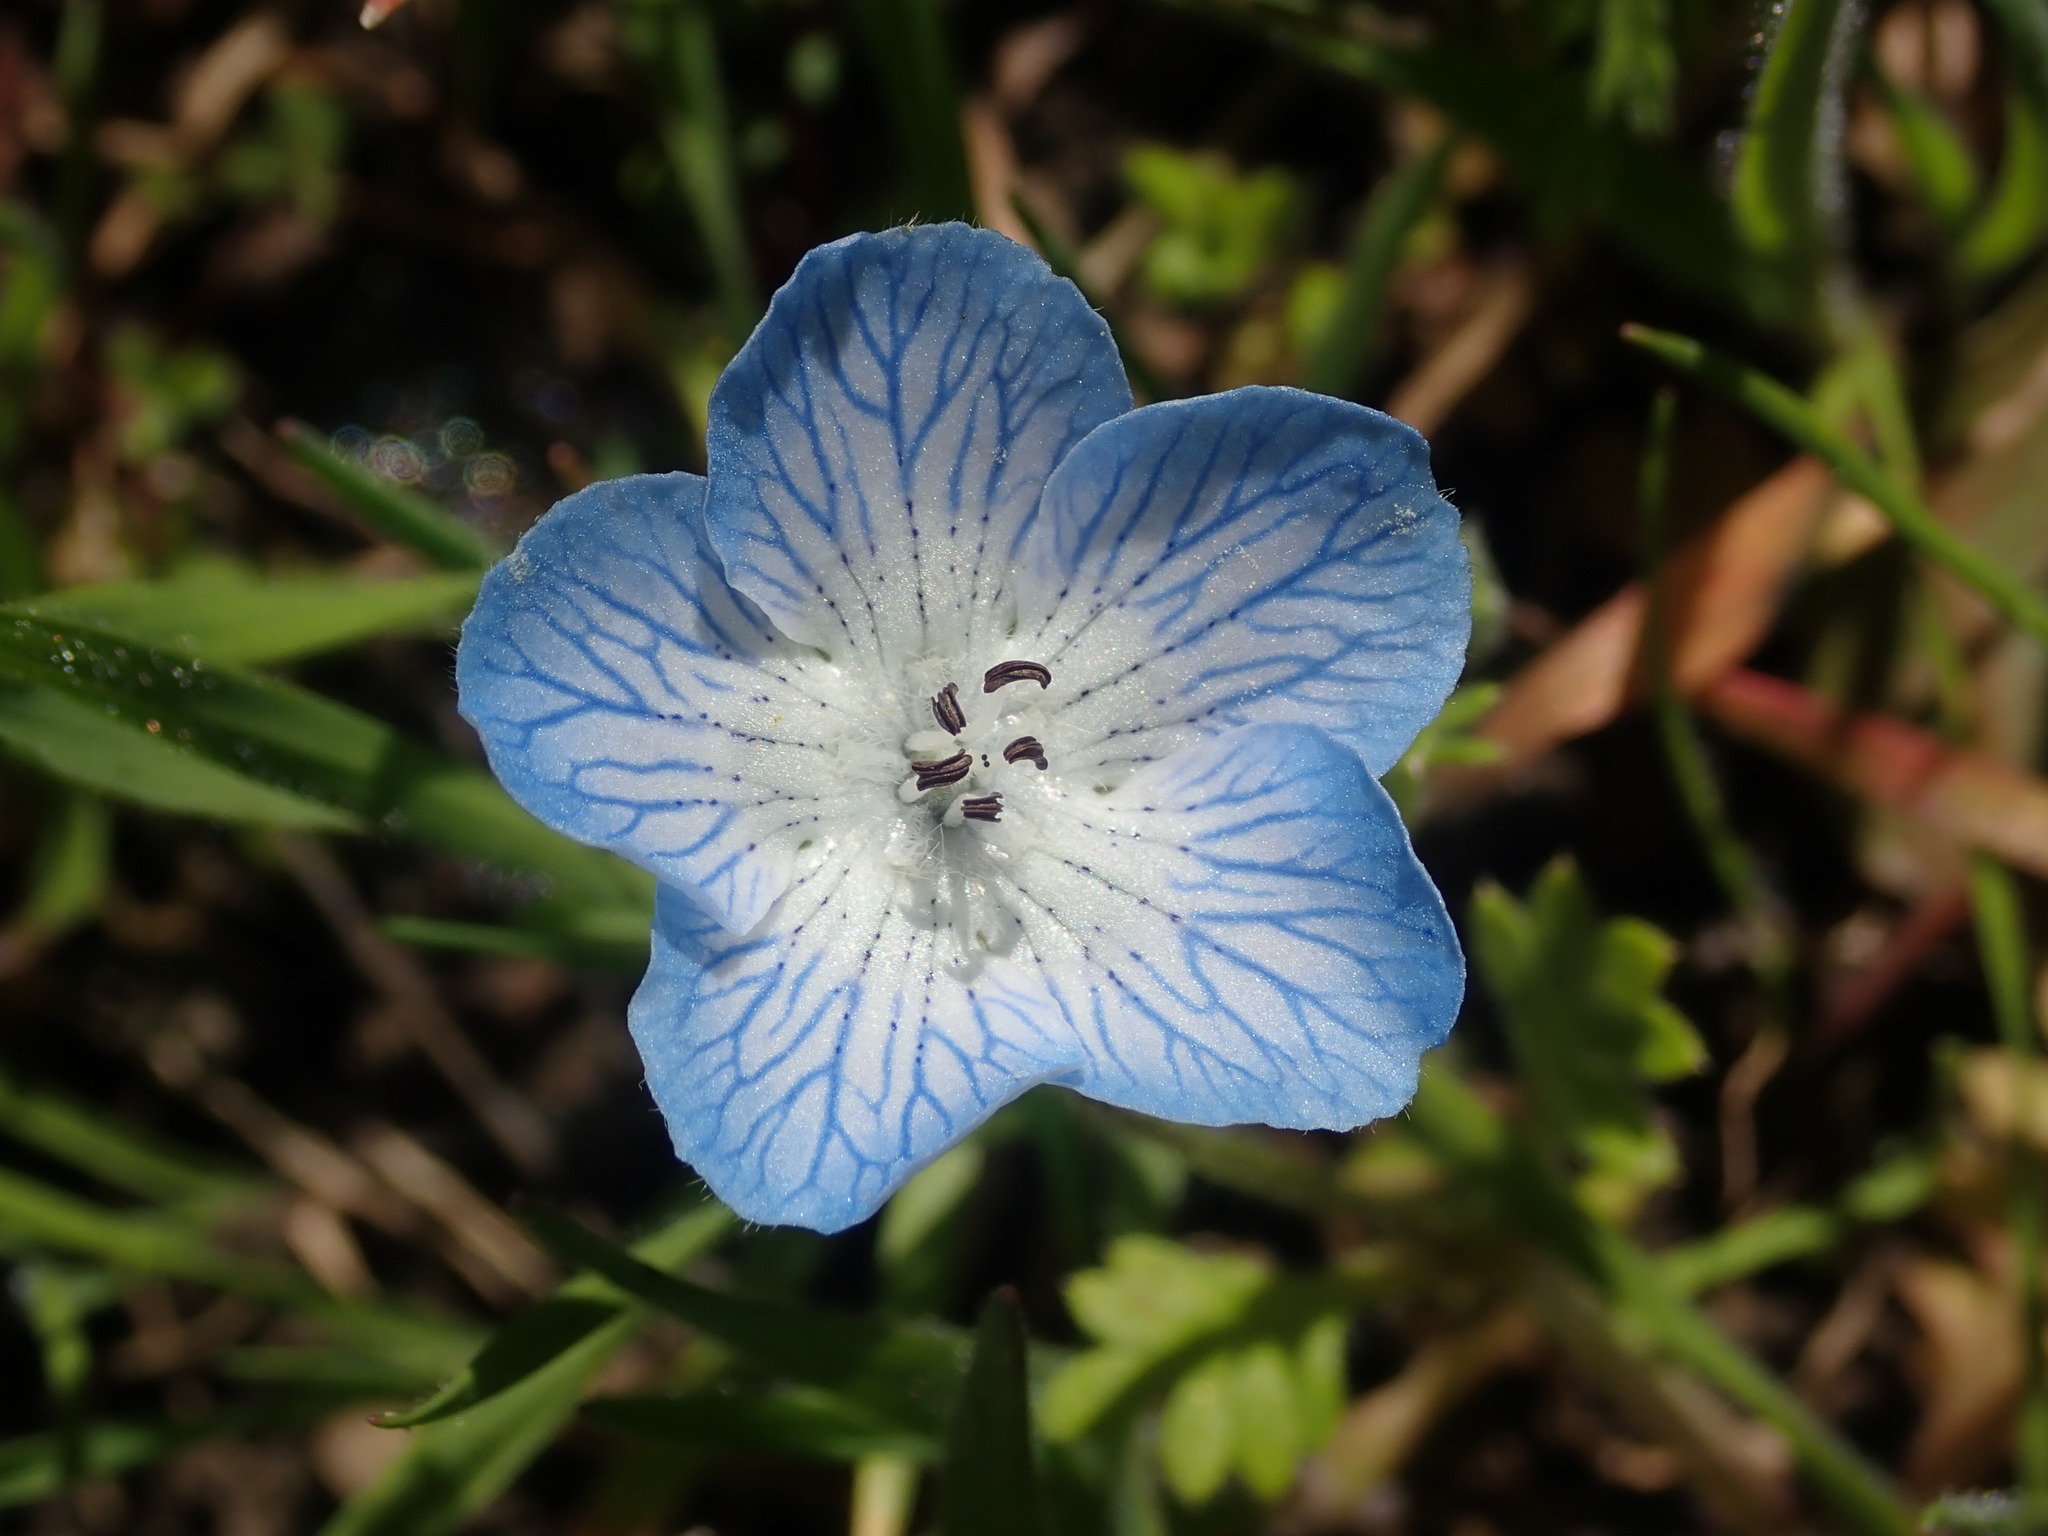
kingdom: Plantae
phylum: Tracheophyta
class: Magnoliopsida
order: Boraginales
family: Hydrophyllaceae
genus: Nemophila
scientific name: Nemophila menziesii
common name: Baby's-blue-eyes
